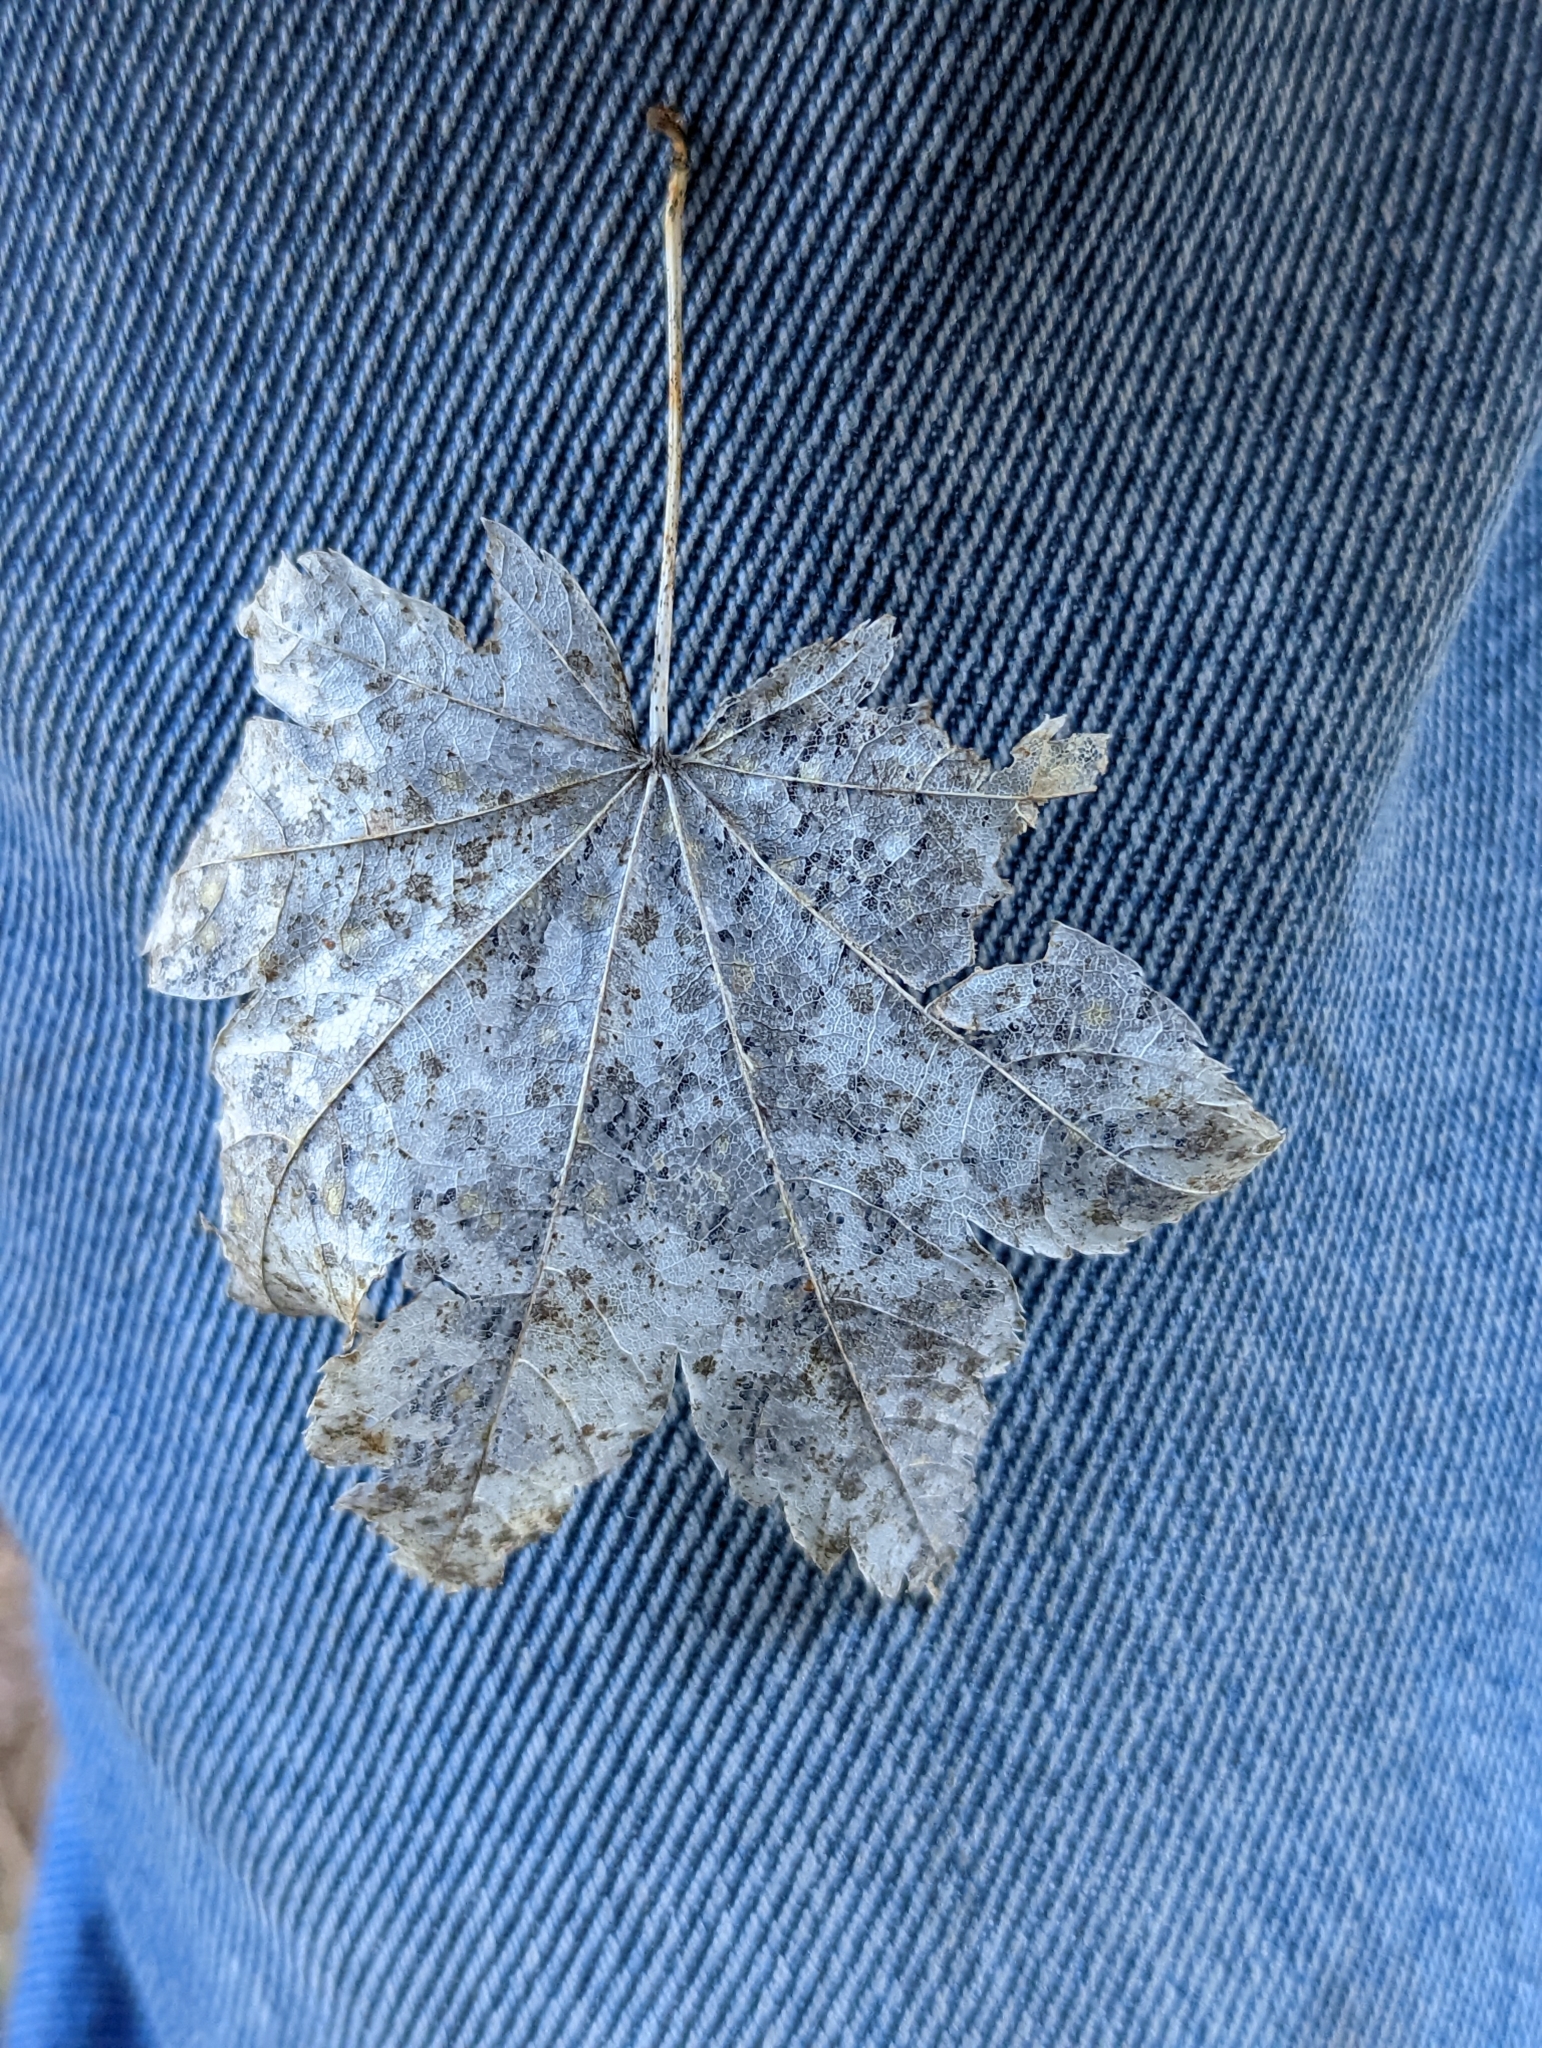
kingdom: Plantae
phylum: Tracheophyta
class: Magnoliopsida
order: Sapindales
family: Sapindaceae
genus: Acer
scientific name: Acer circinatum
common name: Vine maple
